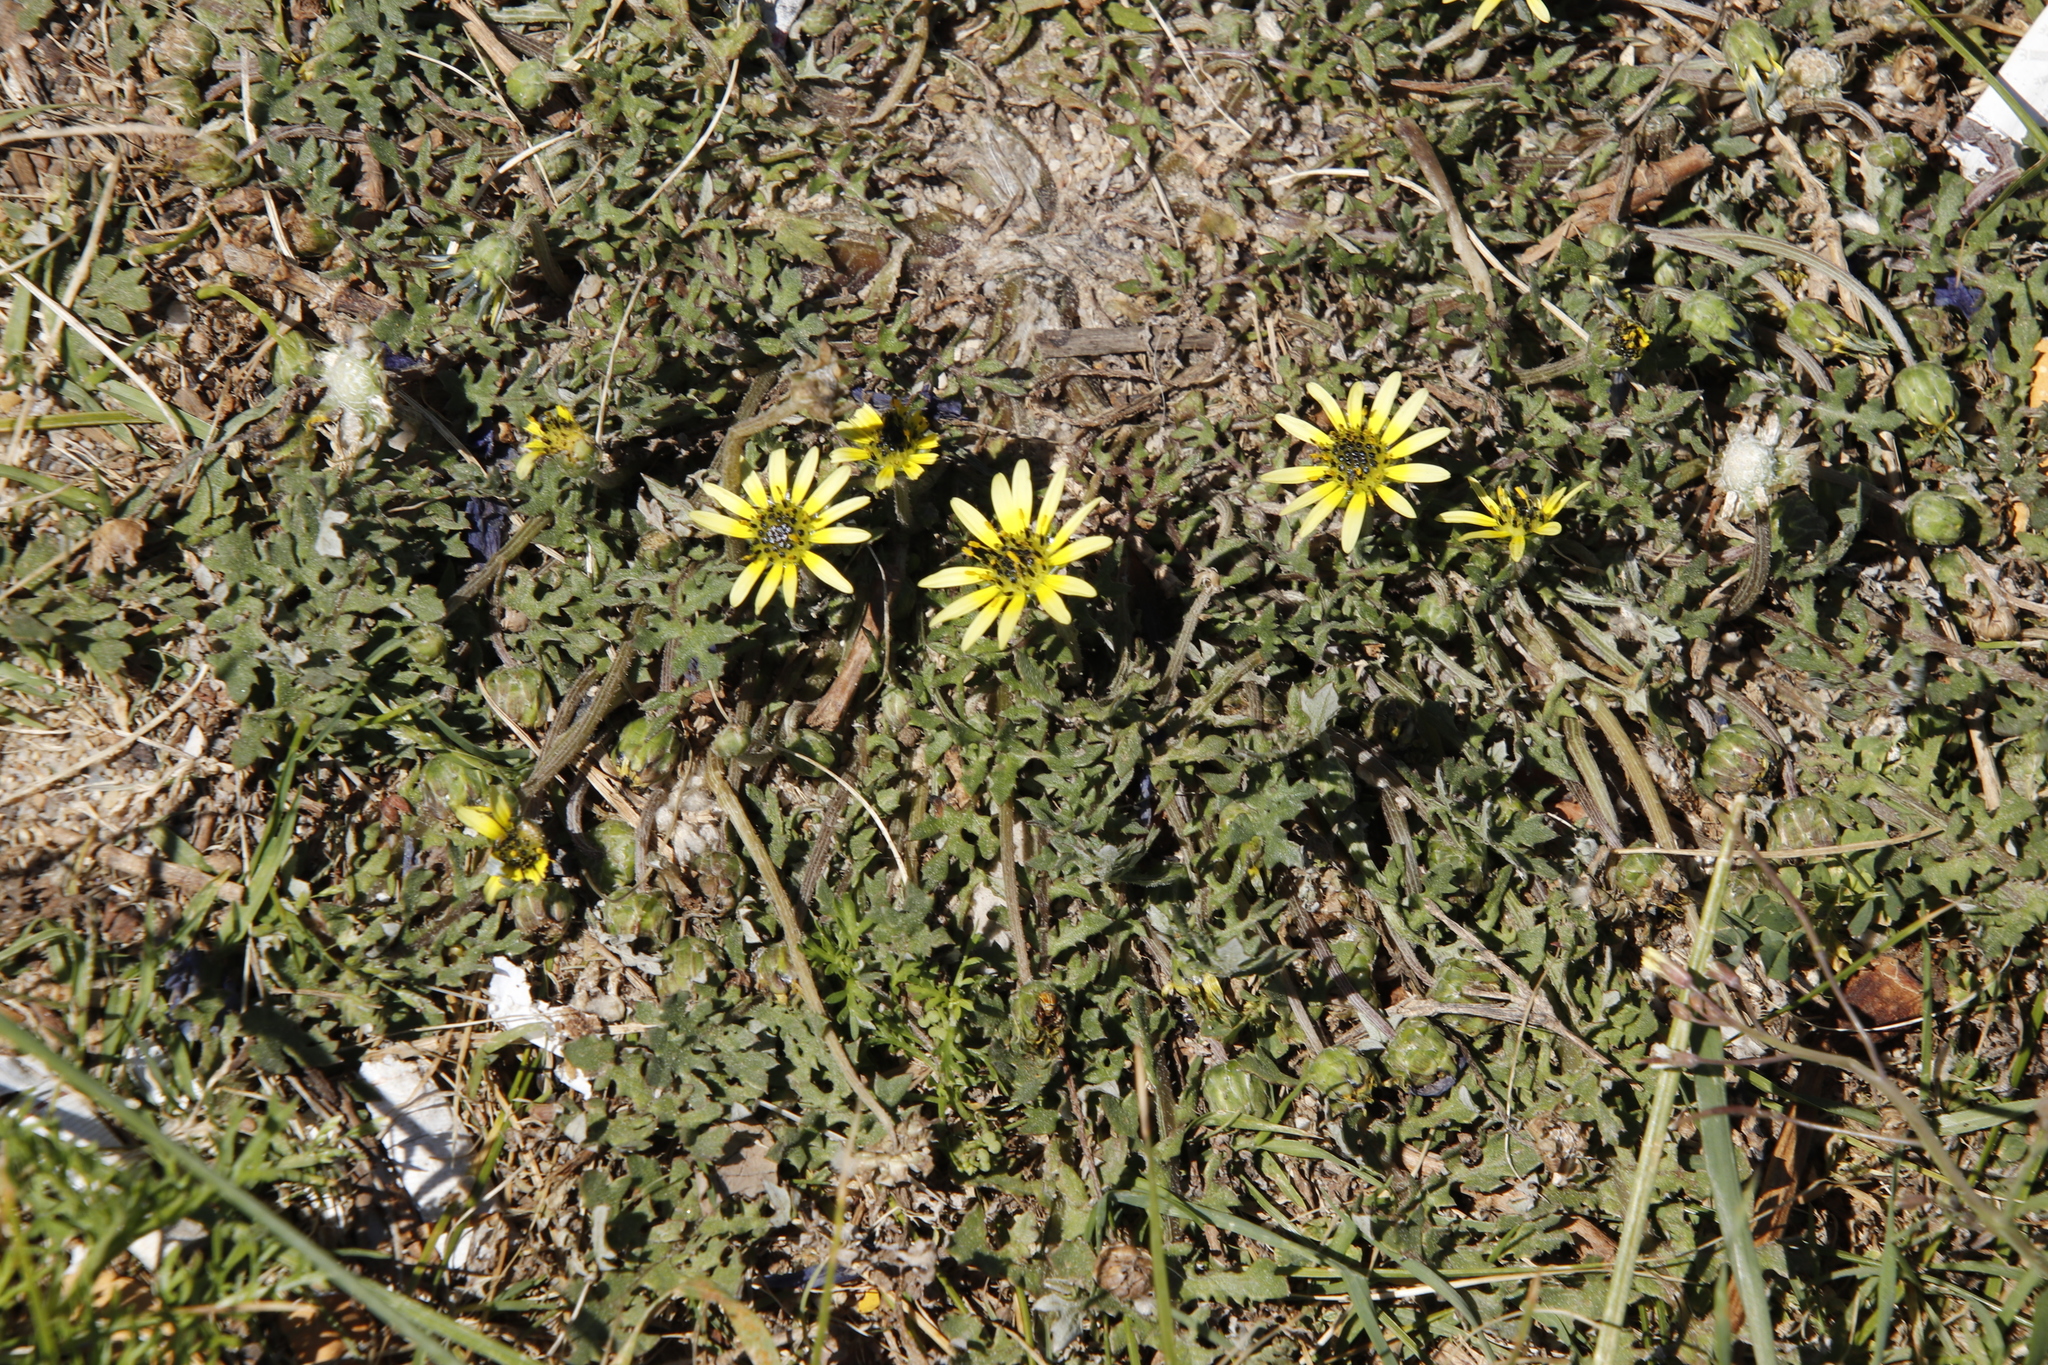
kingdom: Plantae
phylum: Tracheophyta
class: Magnoliopsida
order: Asterales
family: Asteraceae
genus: Arctotheca
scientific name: Arctotheca calendula
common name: Capeweed
